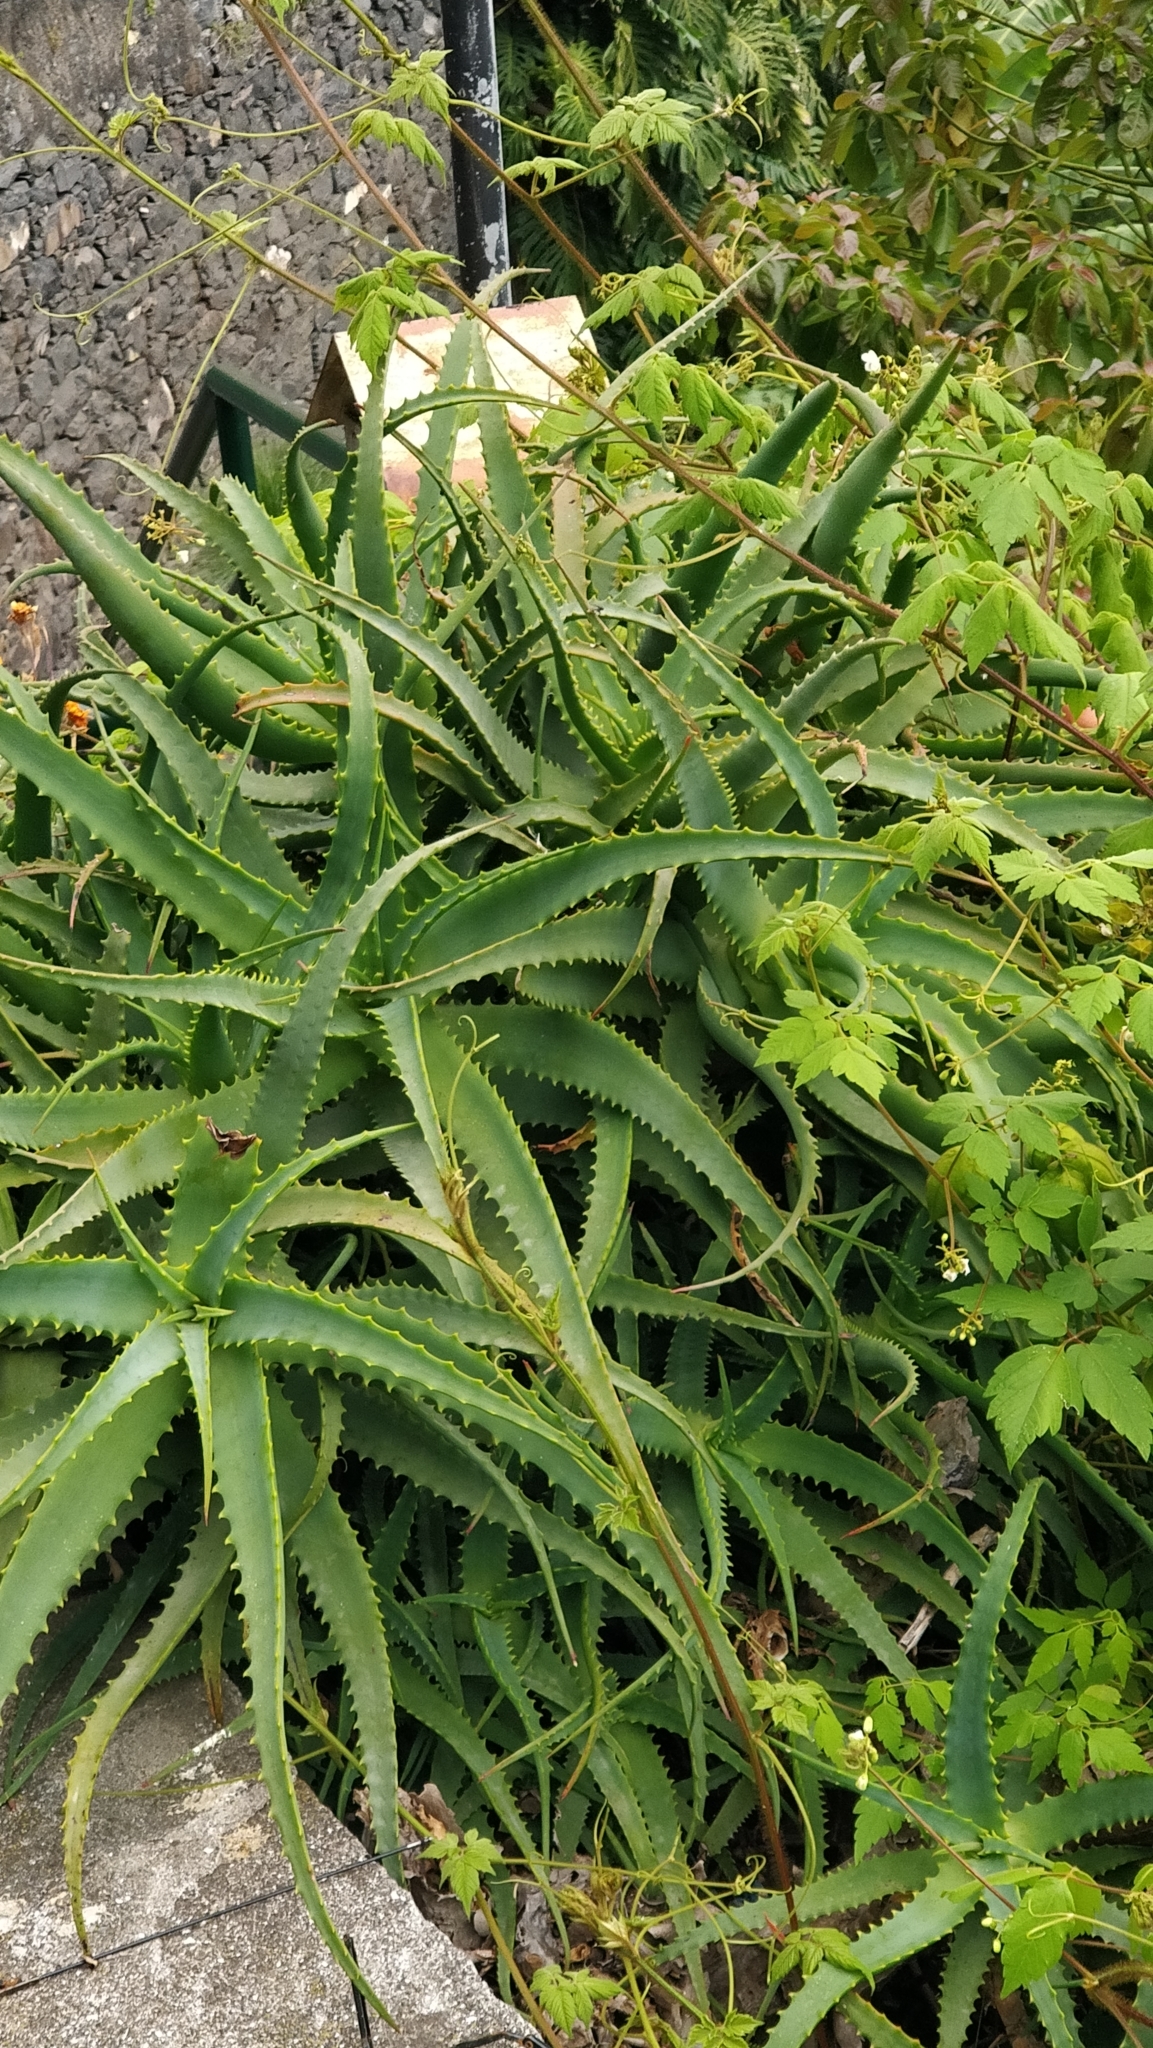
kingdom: Plantae
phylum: Tracheophyta
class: Liliopsida
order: Asparagales
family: Asphodelaceae
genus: Aloe
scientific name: Aloe arborescens
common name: Candelabra aloe
